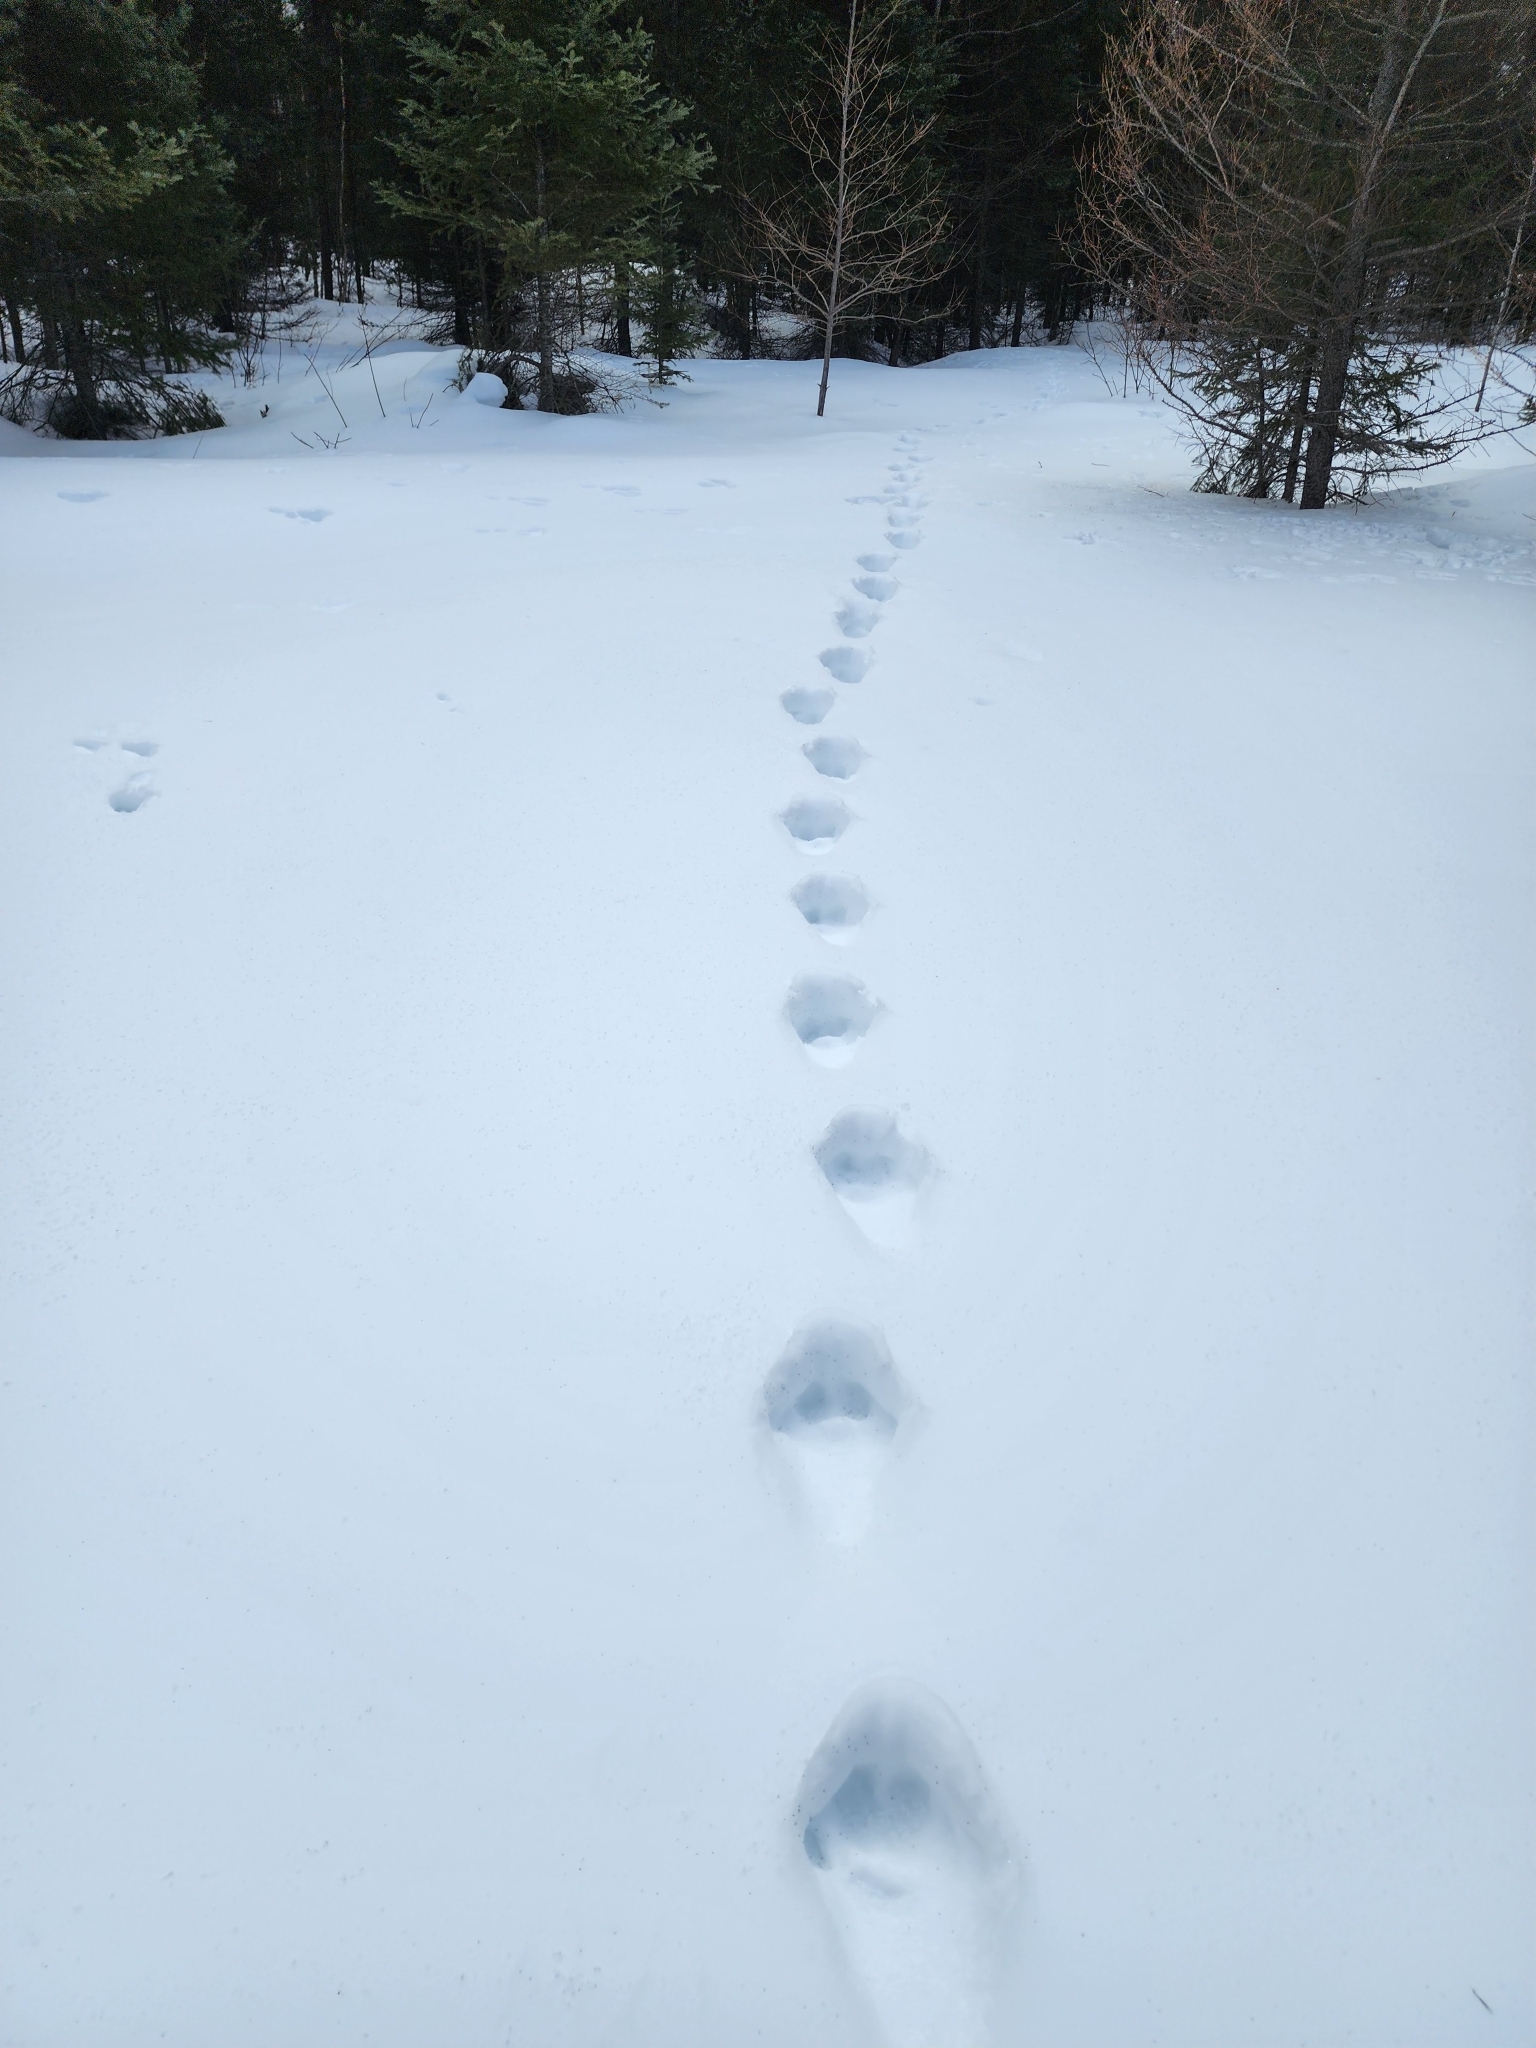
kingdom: Animalia
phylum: Chordata
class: Mammalia
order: Carnivora
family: Felidae
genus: Lynx
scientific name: Lynx canadensis
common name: Canadian lynx
